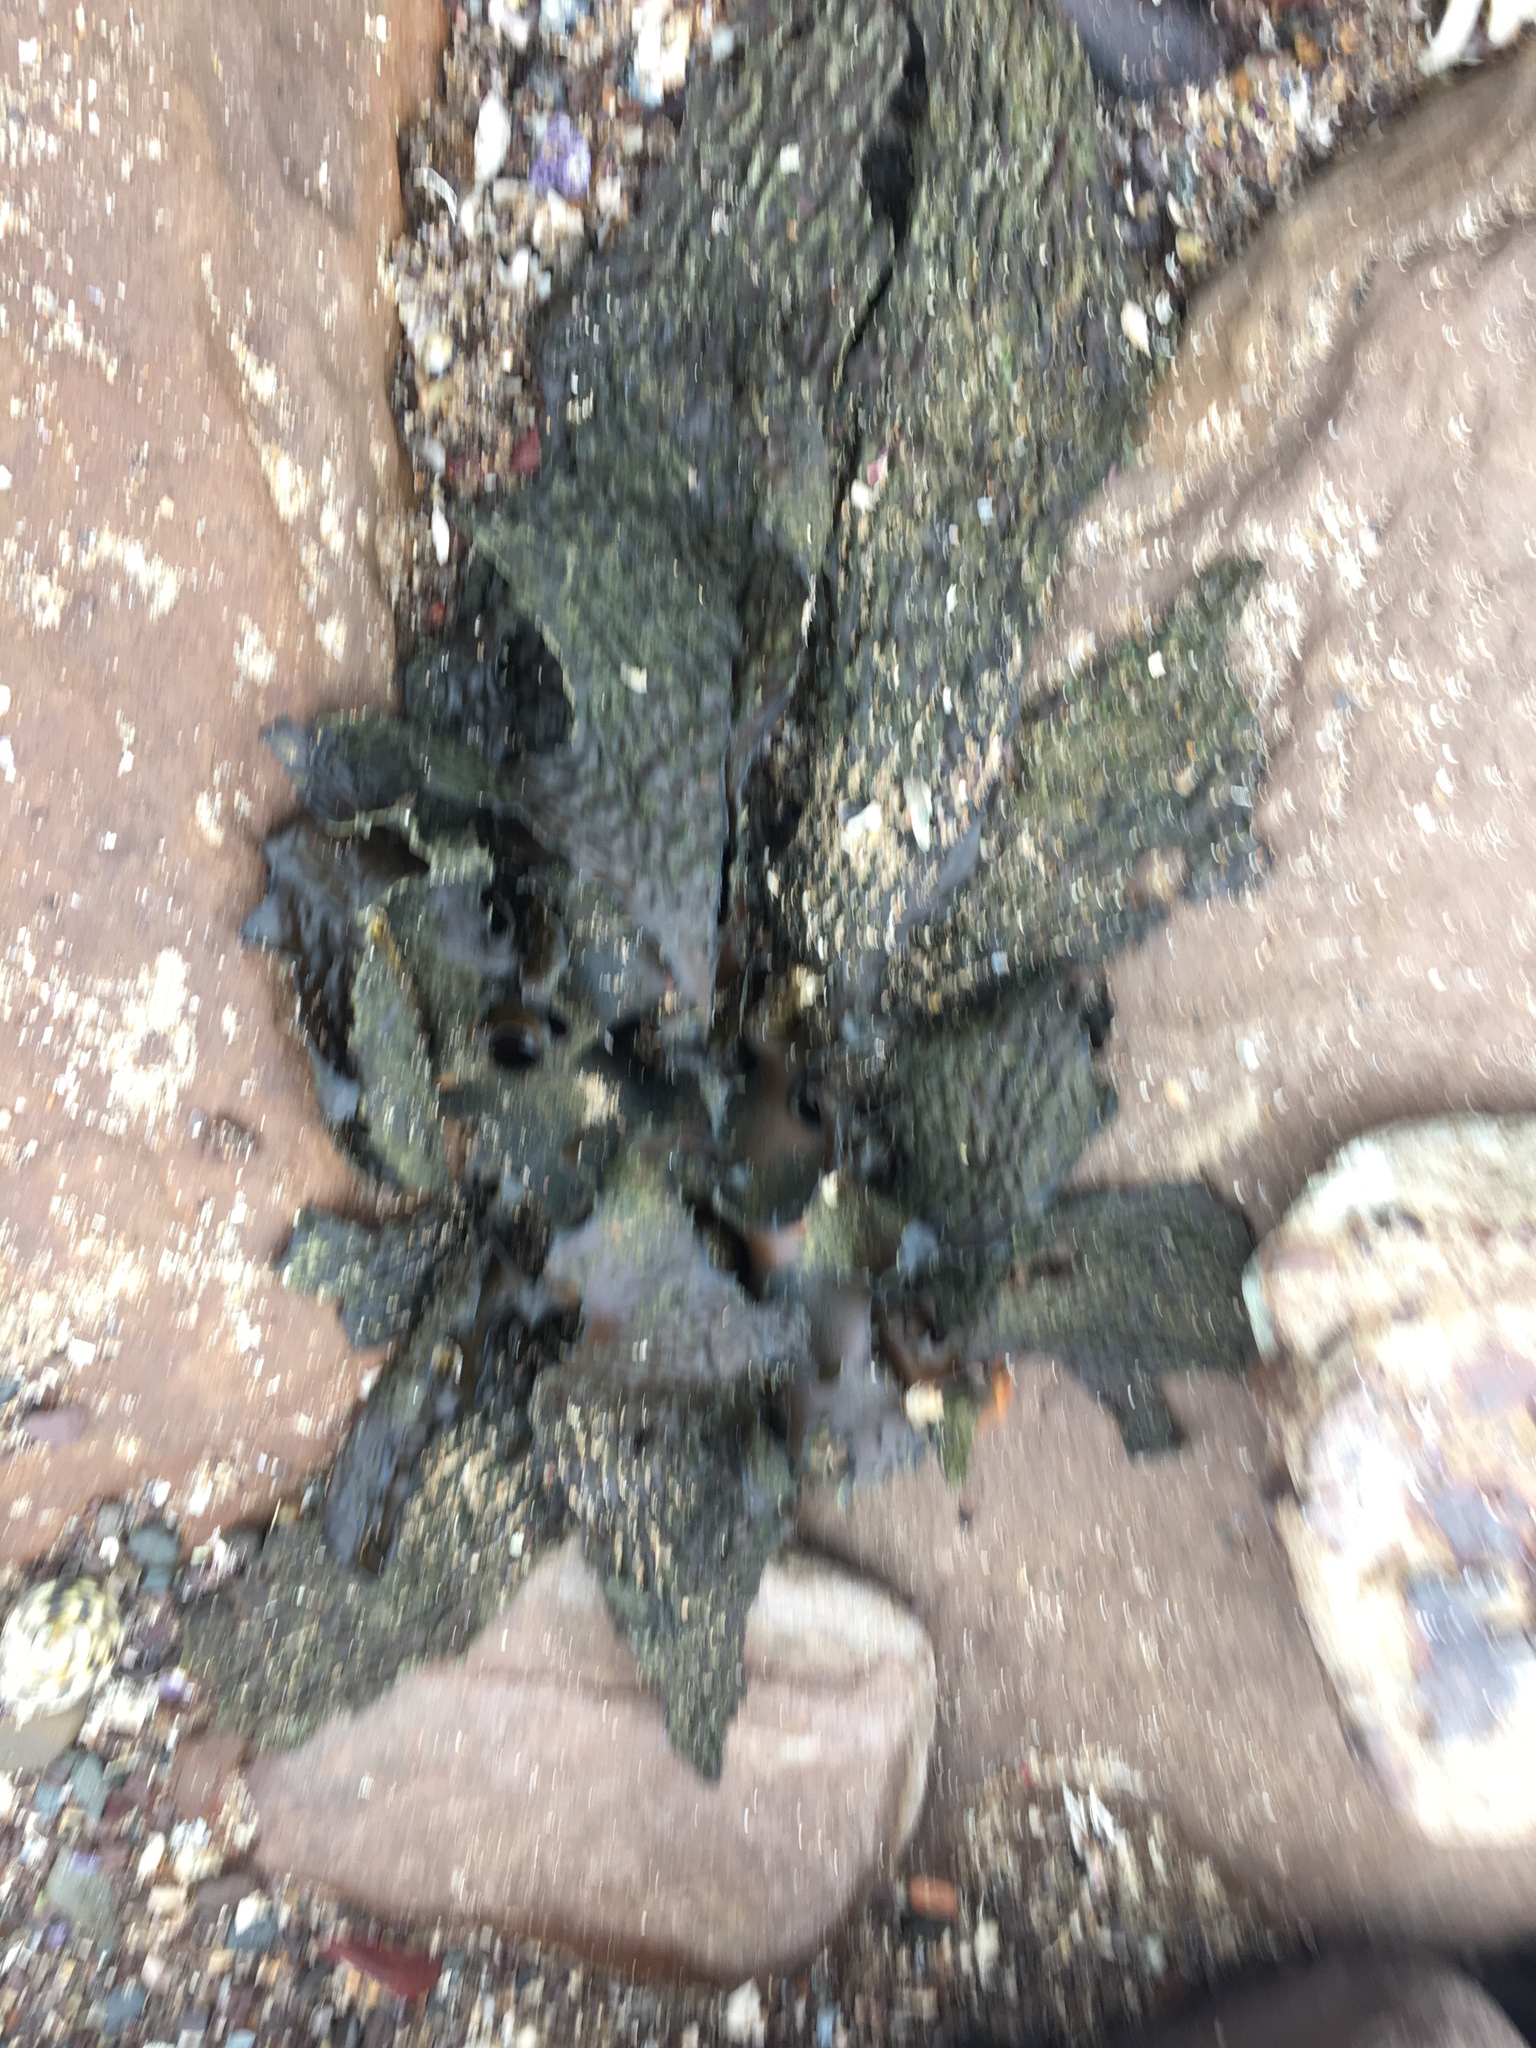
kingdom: Chromista
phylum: Ochrophyta
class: Phaeophyceae
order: Laminariales
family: Lessoniaceae
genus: Ecklonia
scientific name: Ecklonia radiata
